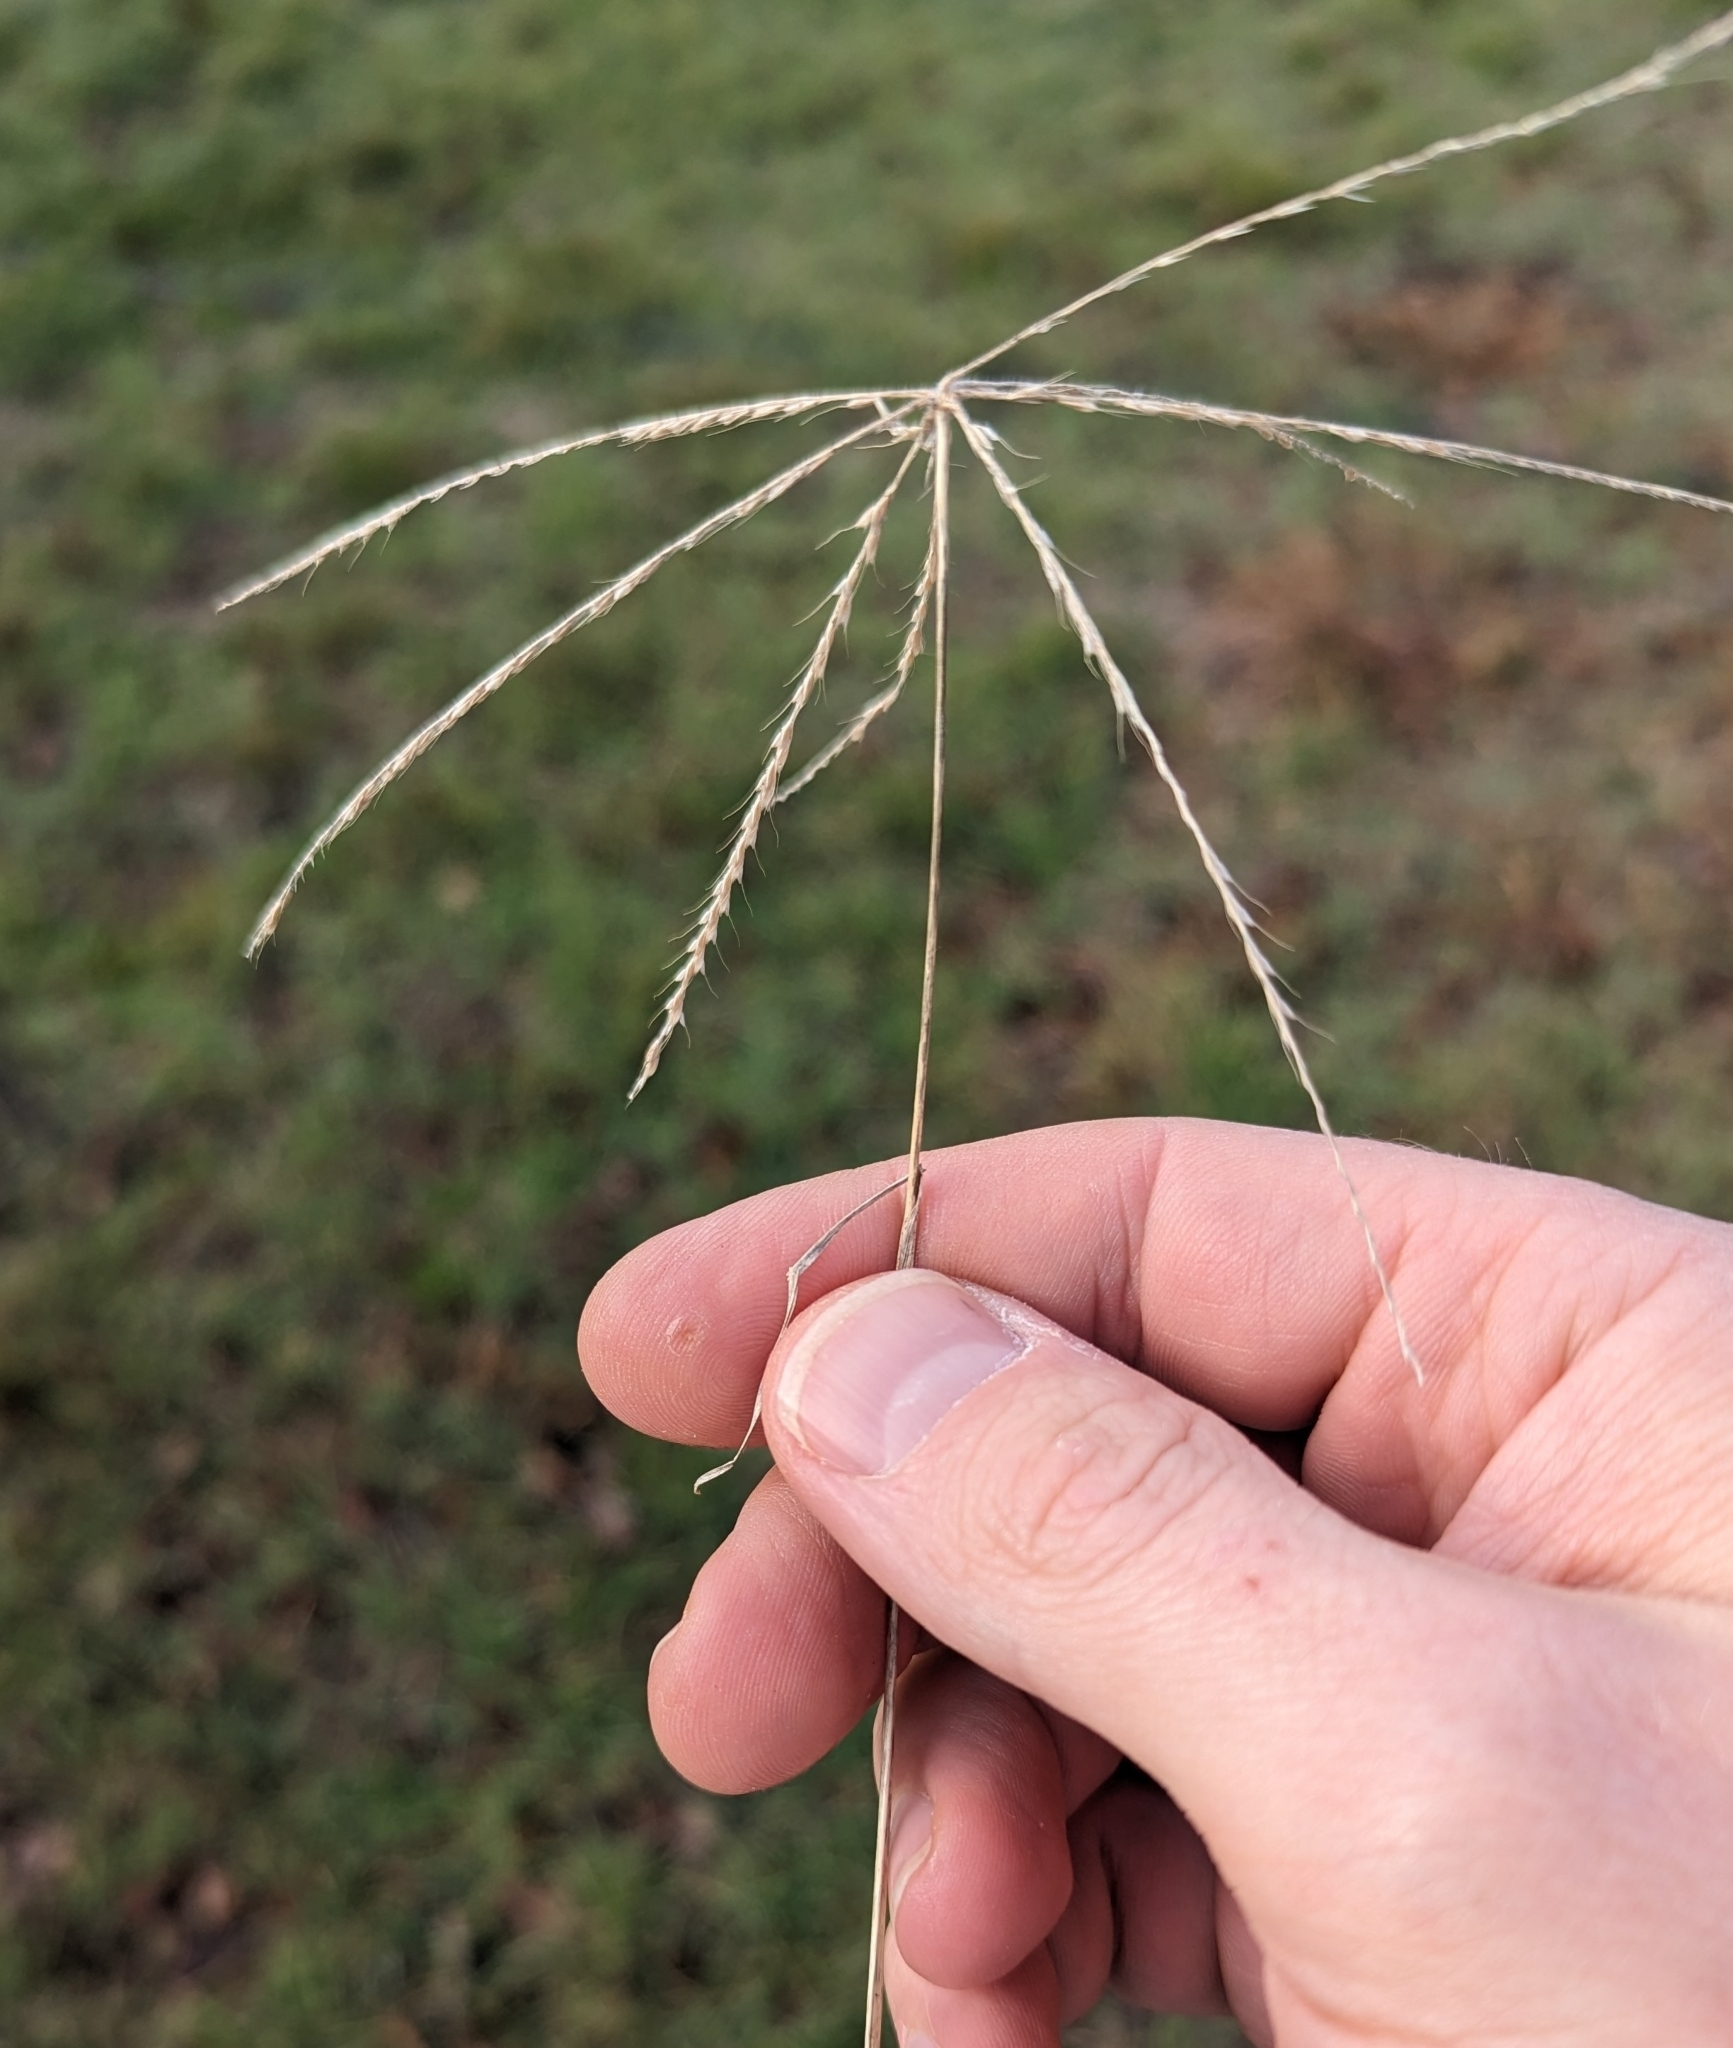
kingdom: Plantae
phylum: Tracheophyta
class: Liliopsida
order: Poales
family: Poaceae
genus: Chloris
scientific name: Chloris andropogonoides
